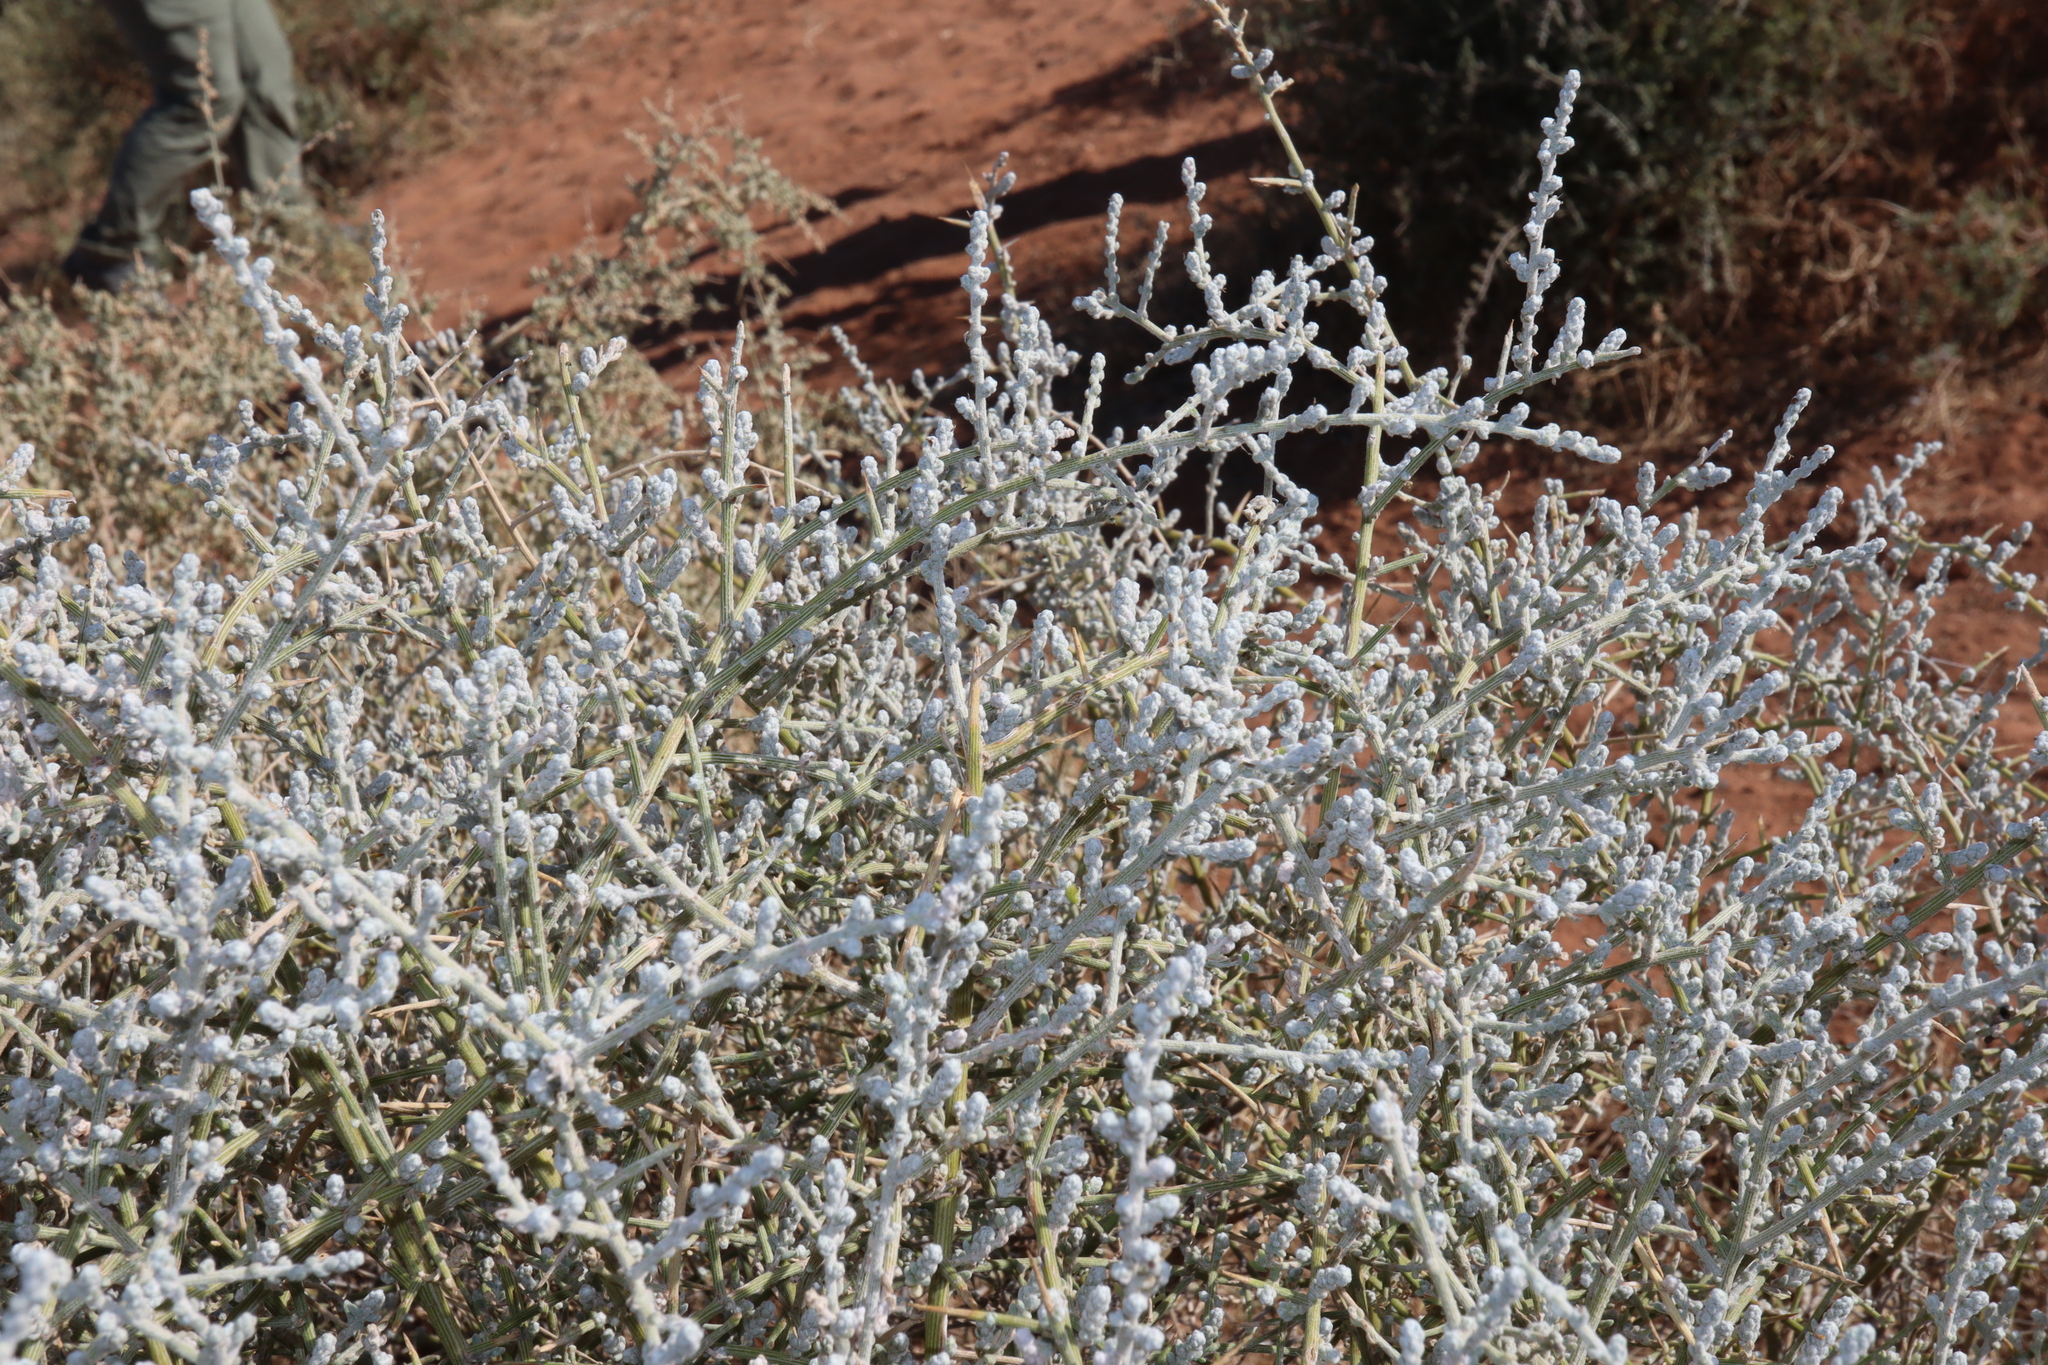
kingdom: Plantae
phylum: Tracheophyta
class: Magnoliopsida
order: Caryophyllales
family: Amaranthaceae
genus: Maireana
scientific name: Maireana aphylla
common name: Cottonbush
